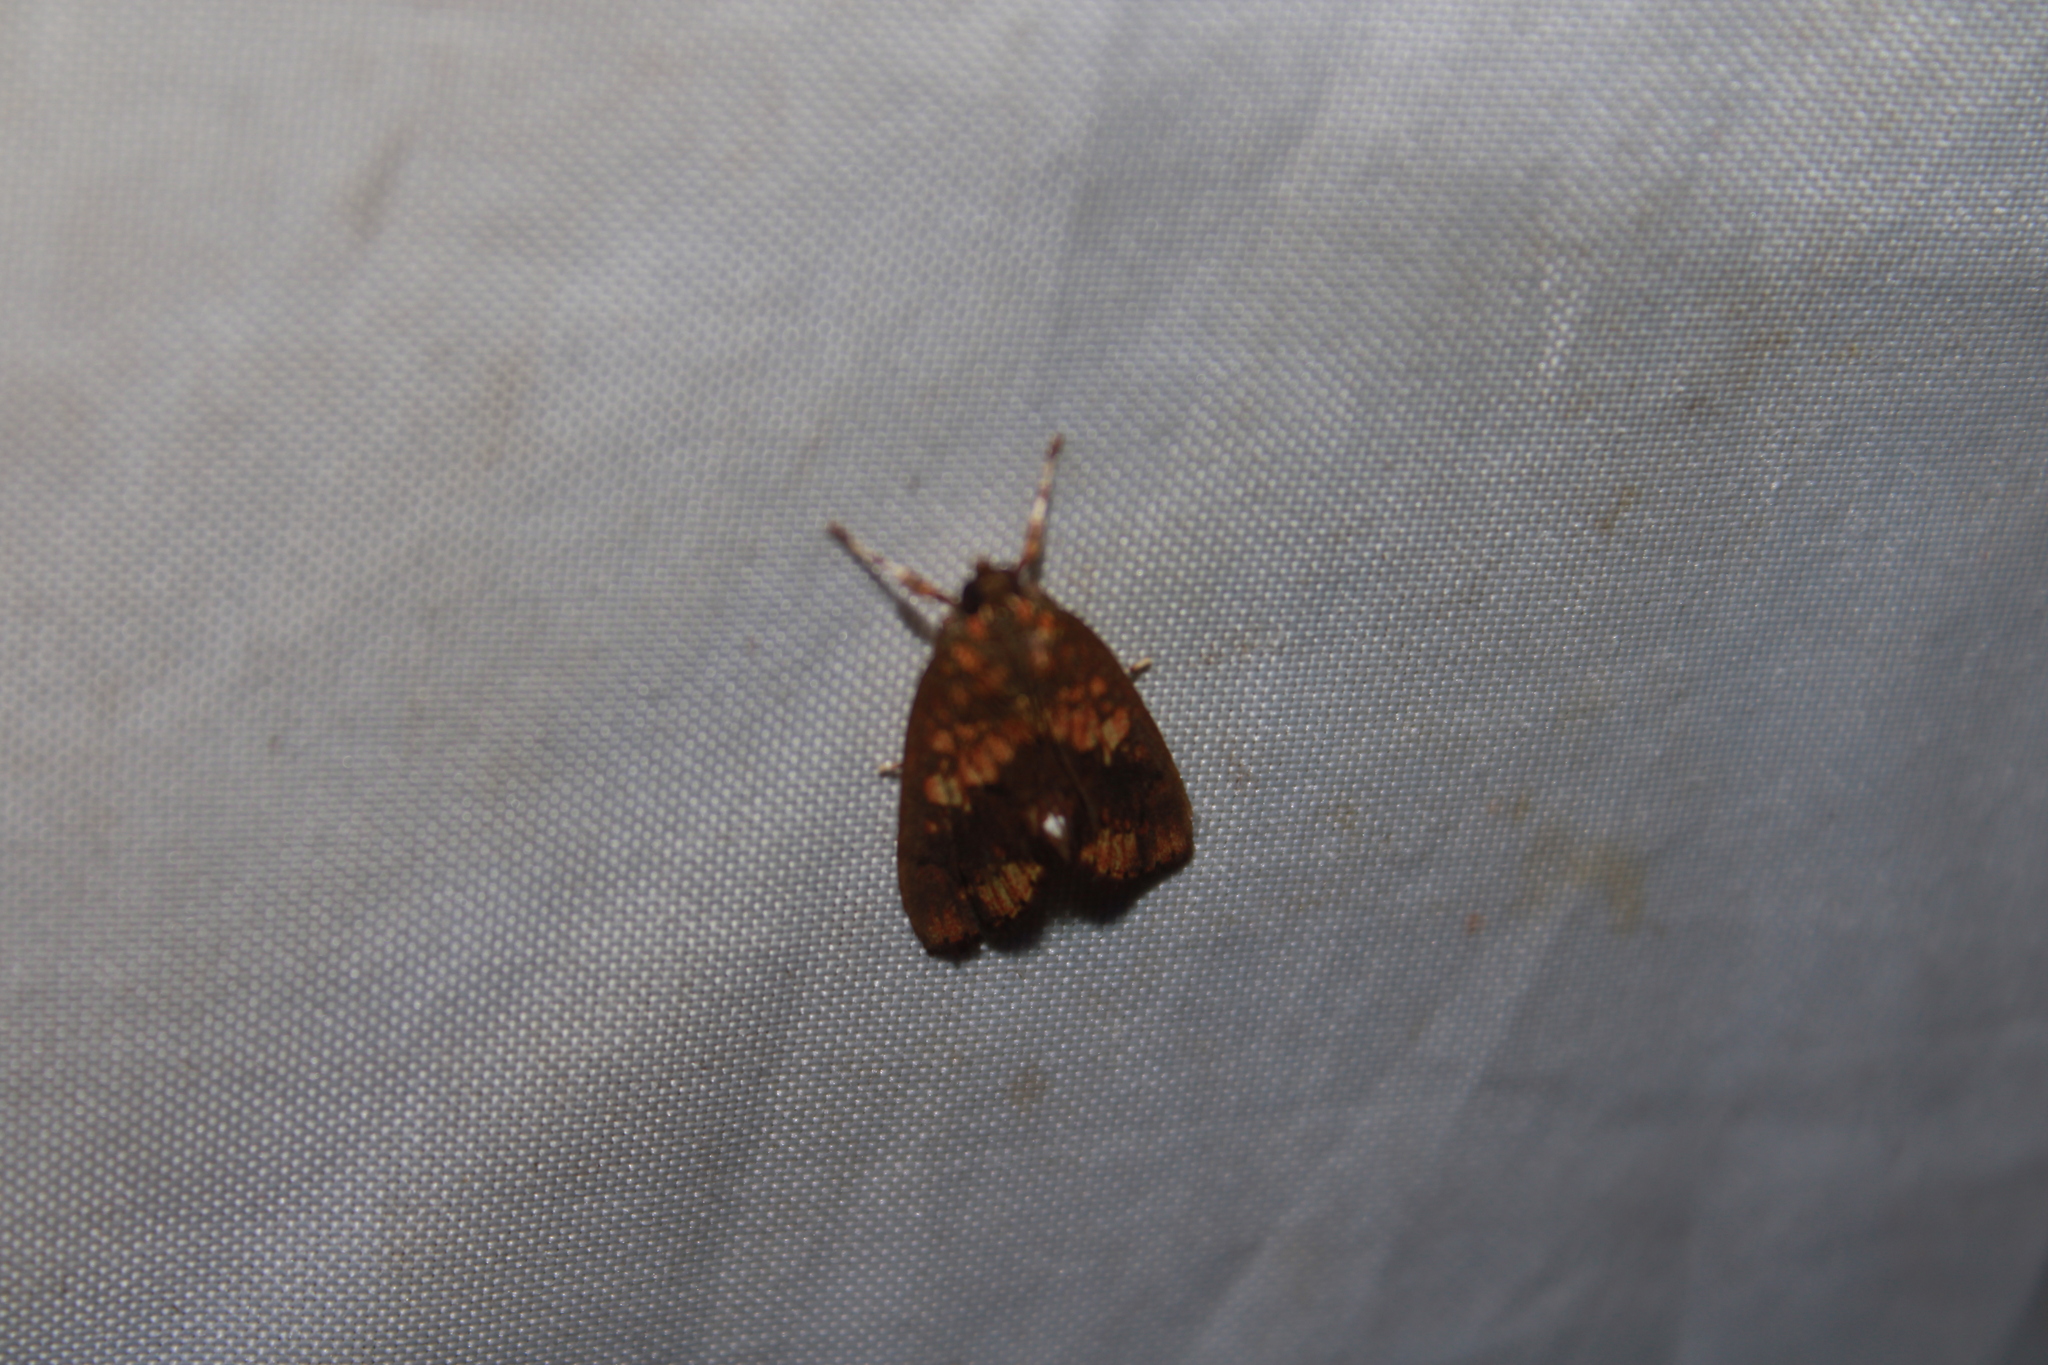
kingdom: Animalia
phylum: Arthropoda
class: Insecta
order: Lepidoptera
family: Crambidae
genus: Mimophobetron
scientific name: Mimophobetron pyropsalis
